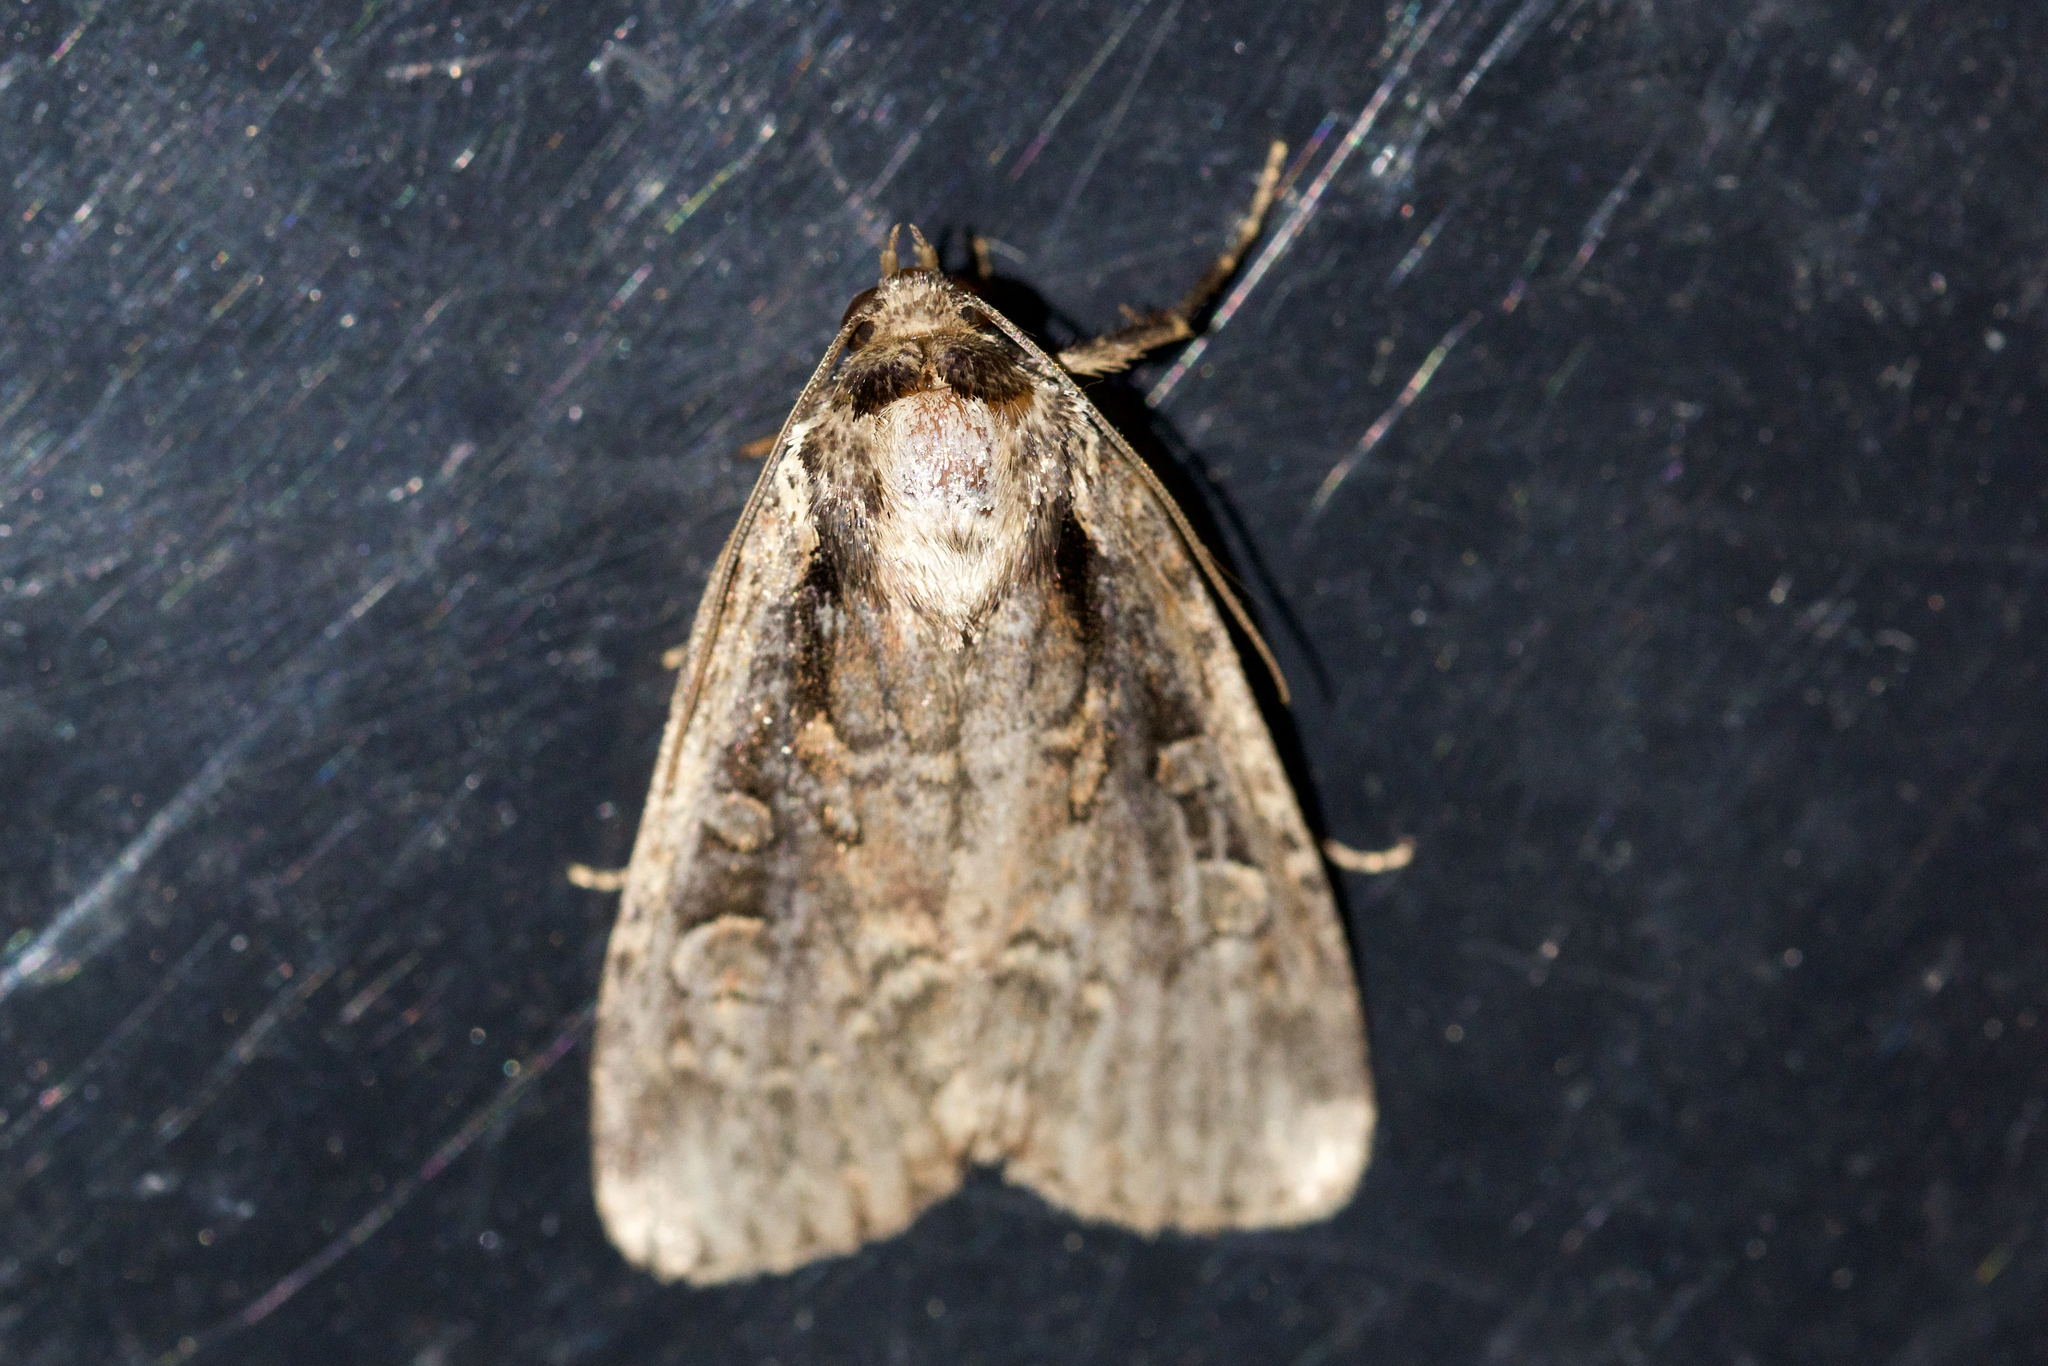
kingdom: Animalia
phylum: Arthropoda
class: Insecta
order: Lepidoptera
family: Noctuidae
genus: Eueretagrotis
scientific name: Eueretagrotis sigmoides
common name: Sigmoid dart
